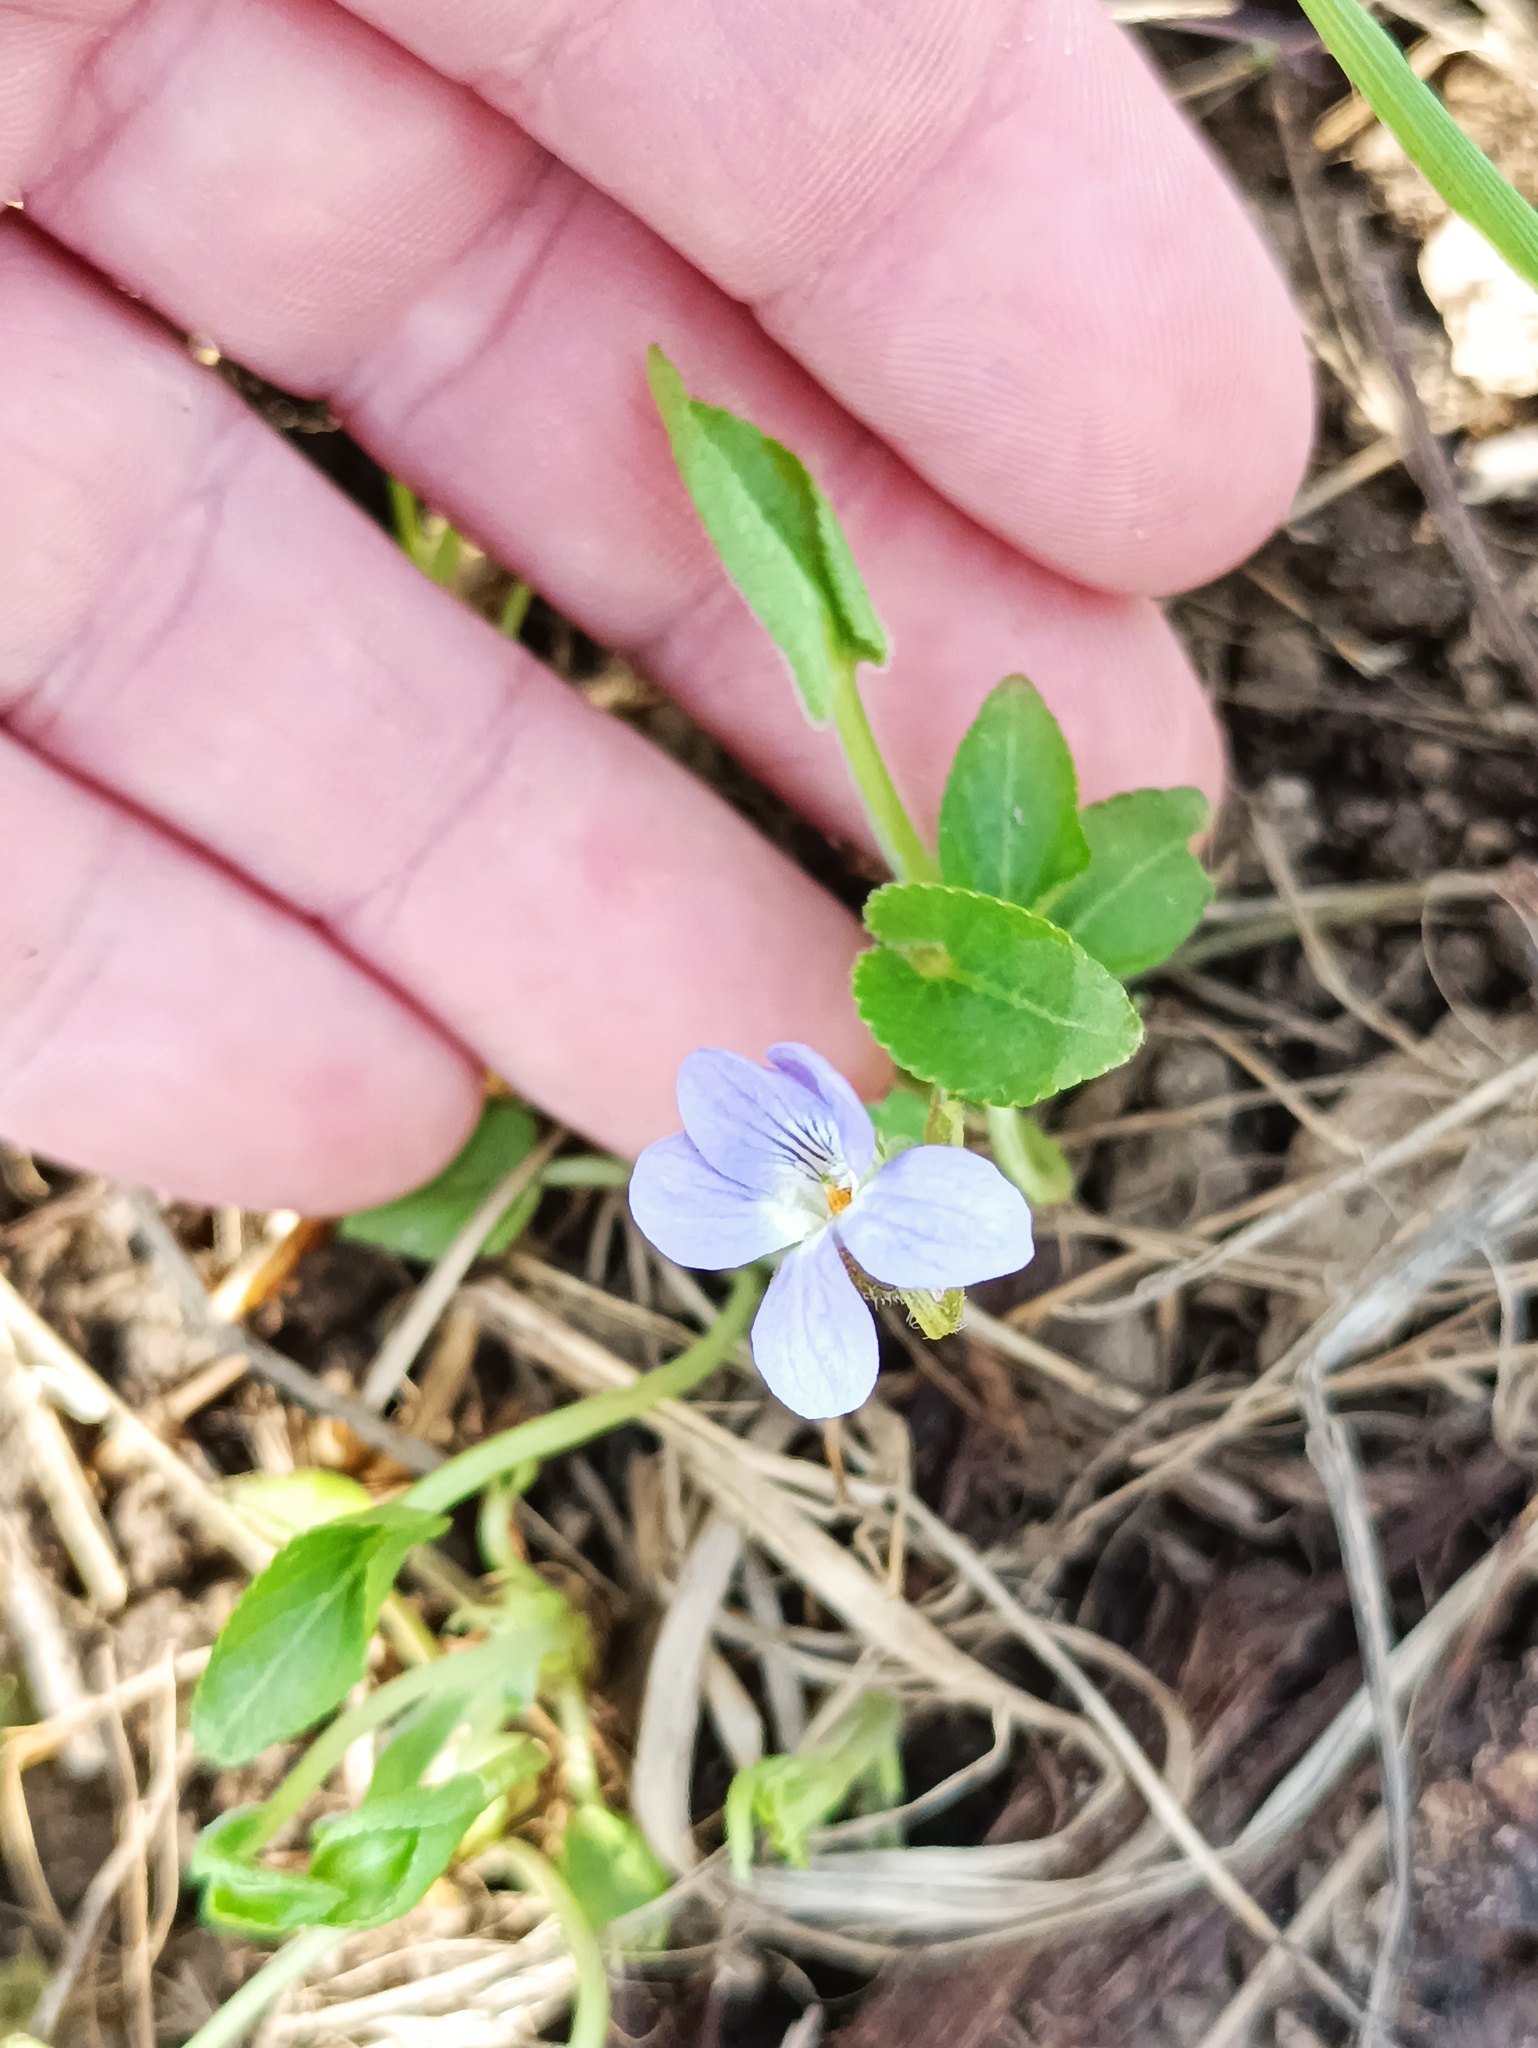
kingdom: Plantae
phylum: Tracheophyta
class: Magnoliopsida
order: Malpighiales
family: Violaceae
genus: Viola
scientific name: Viola collina
